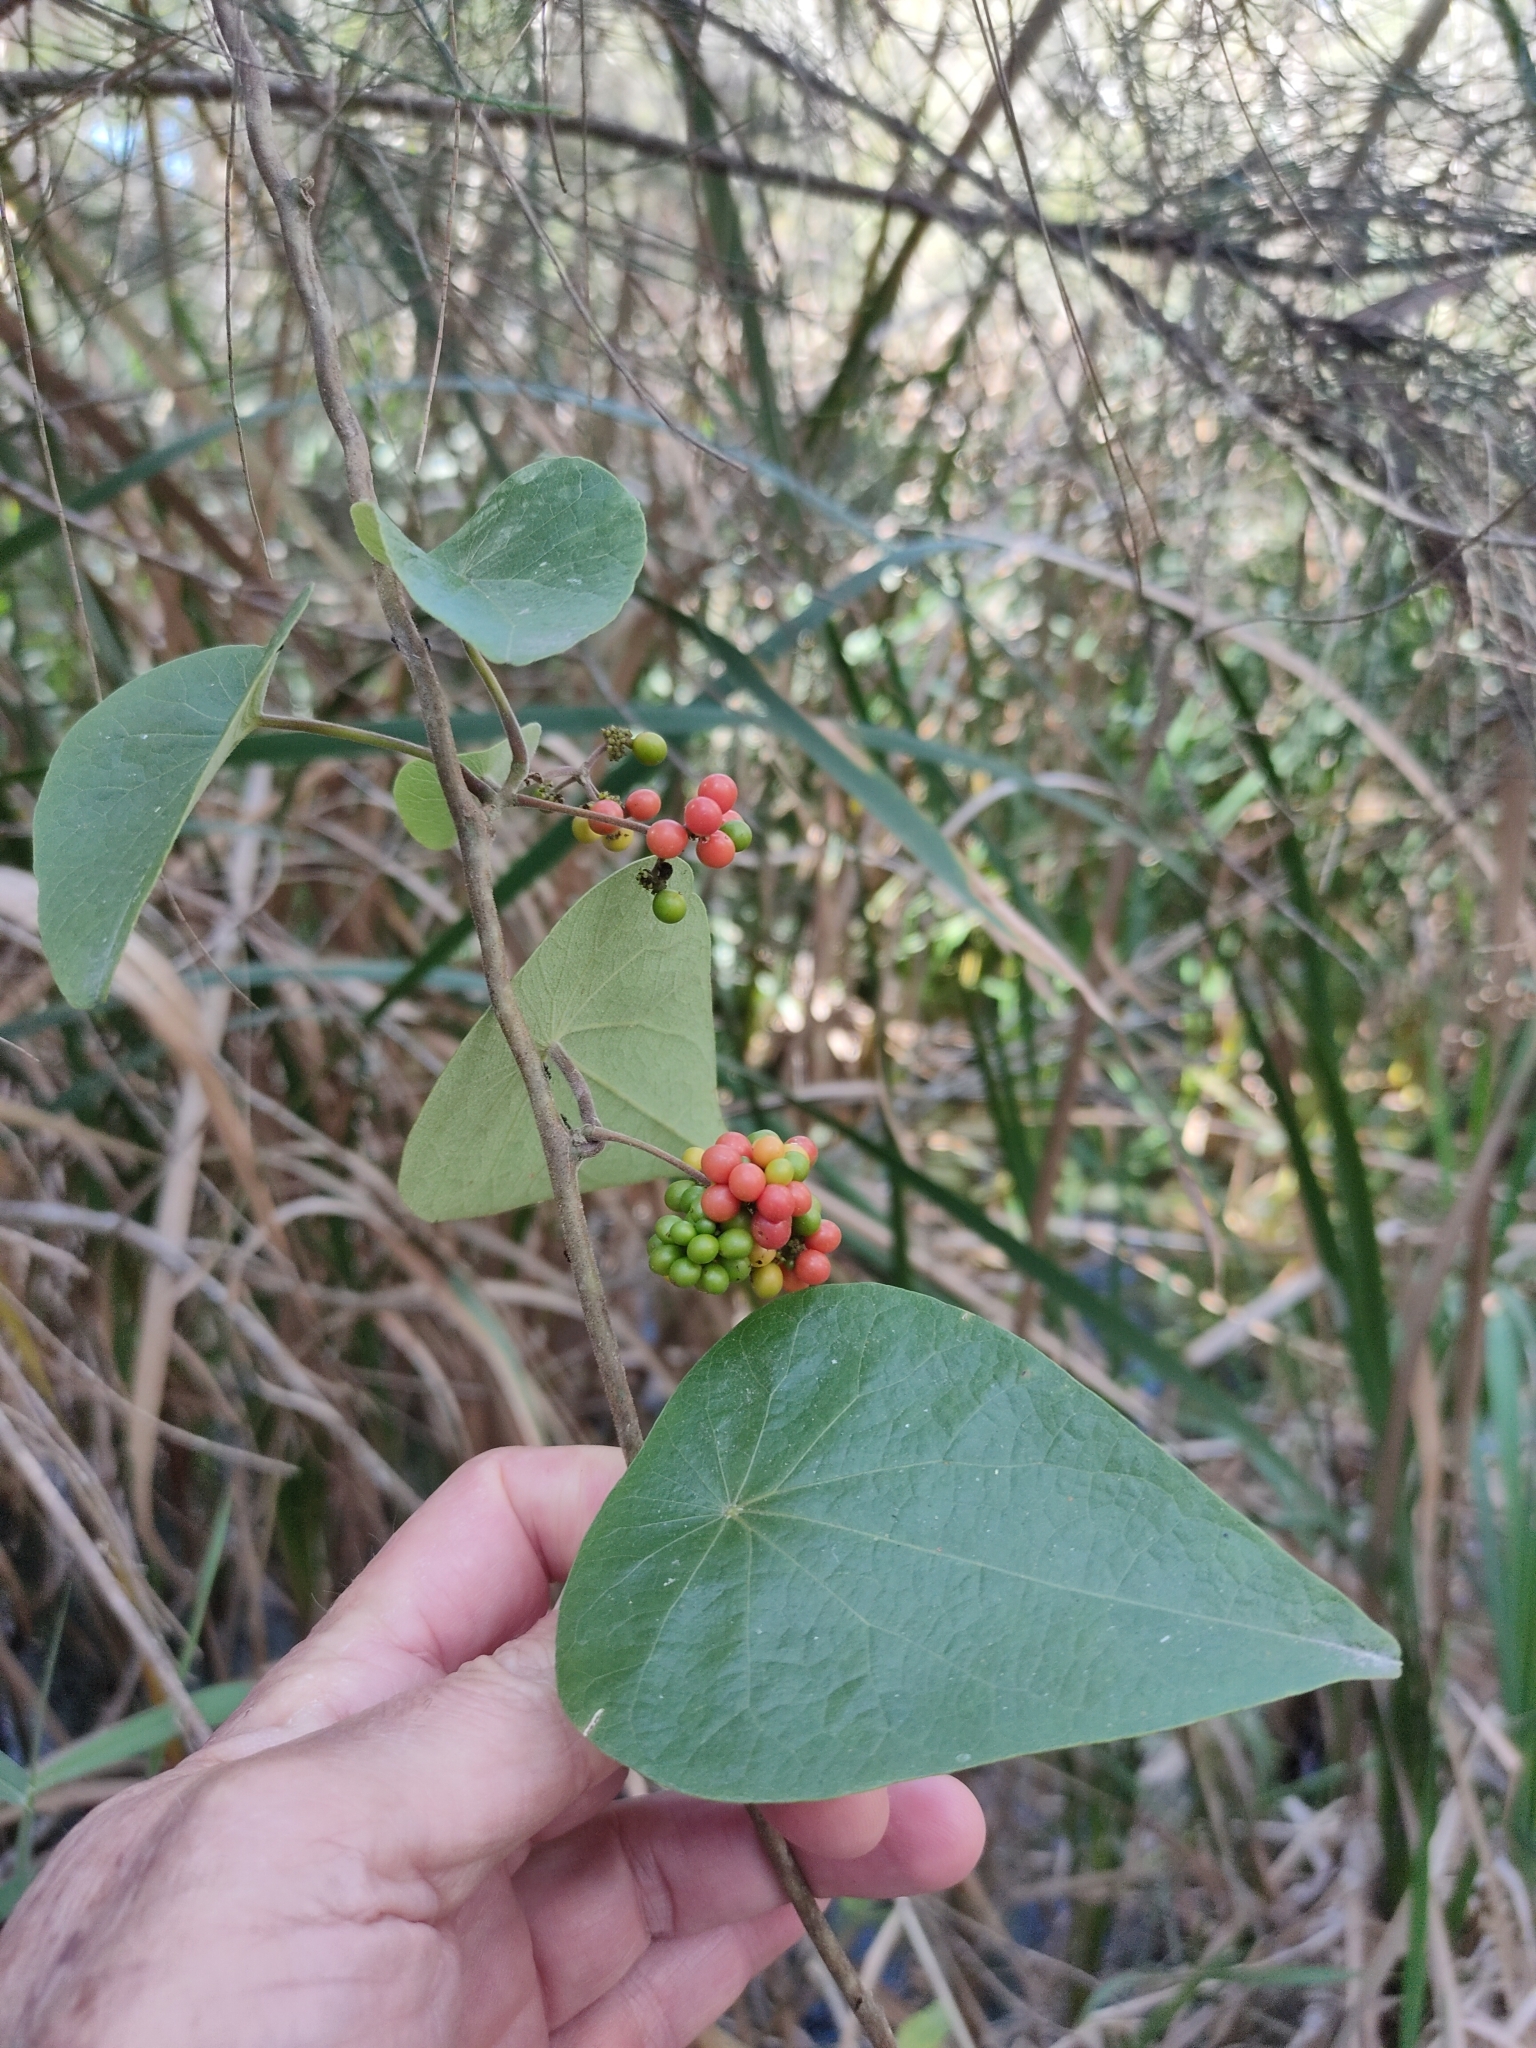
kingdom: Plantae
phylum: Tracheophyta
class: Magnoliopsida
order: Ranunculales
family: Menispermaceae
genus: Stephania
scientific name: Stephania japonica
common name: Snake vine
